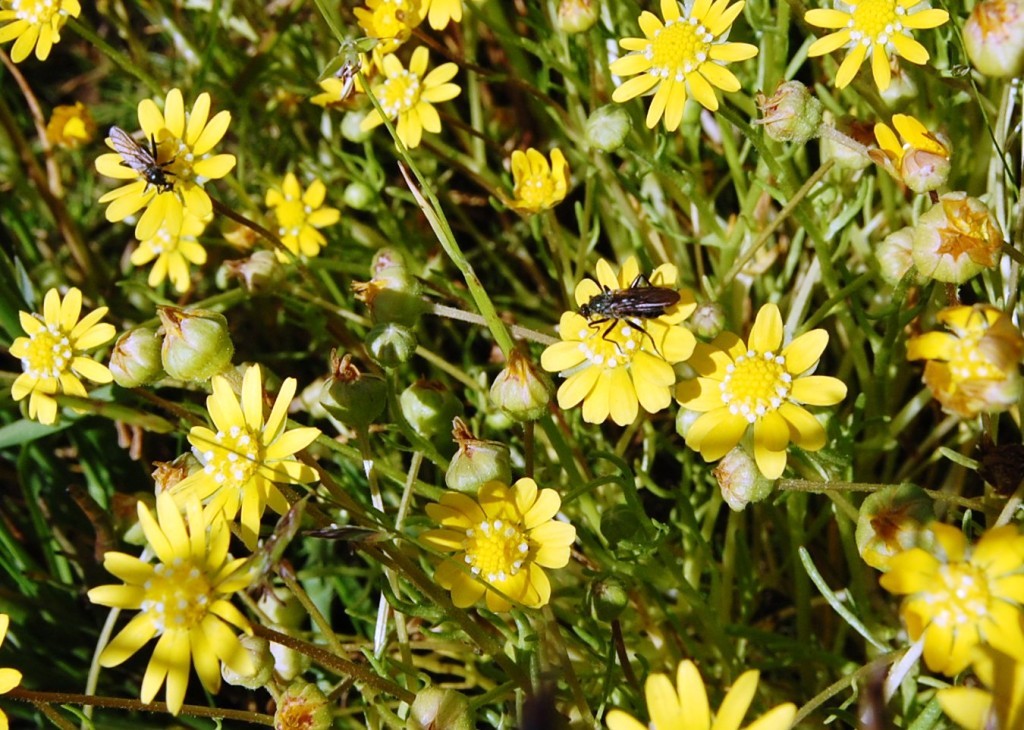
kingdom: Plantae
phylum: Tracheophyta
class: Magnoliopsida
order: Asterales
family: Asteraceae
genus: Blennosperma
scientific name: Blennosperma bakeri
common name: Sonoma sunshine
